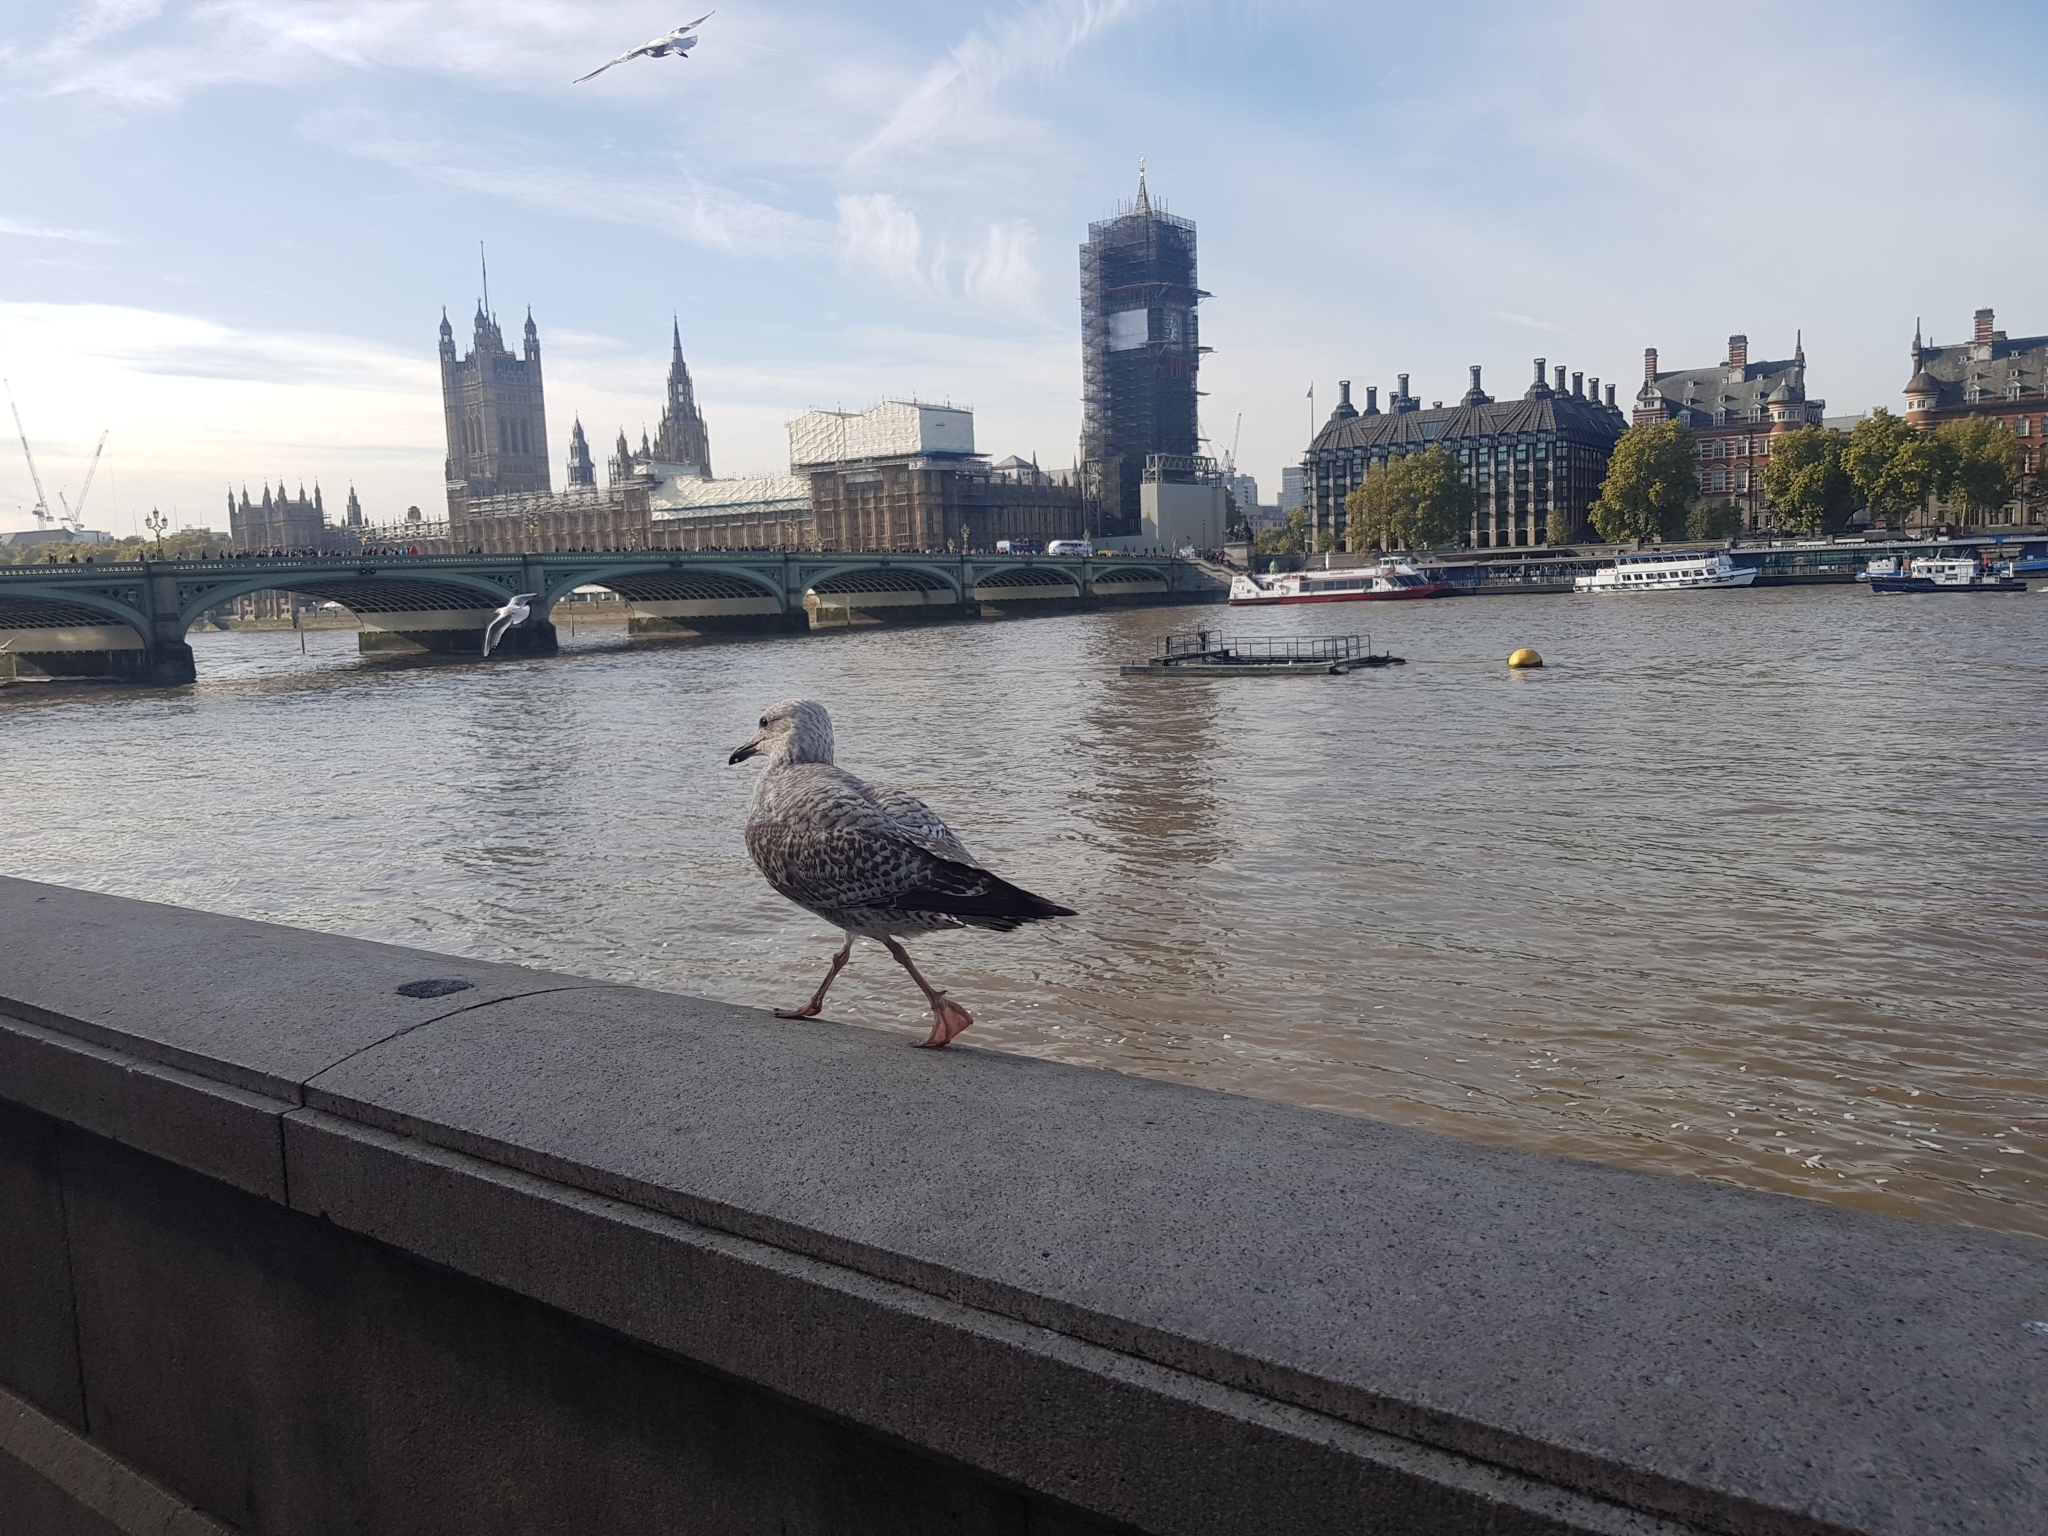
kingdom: Animalia
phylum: Chordata
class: Aves
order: Charadriiformes
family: Laridae
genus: Larus
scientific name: Larus argentatus
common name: Herring gull
